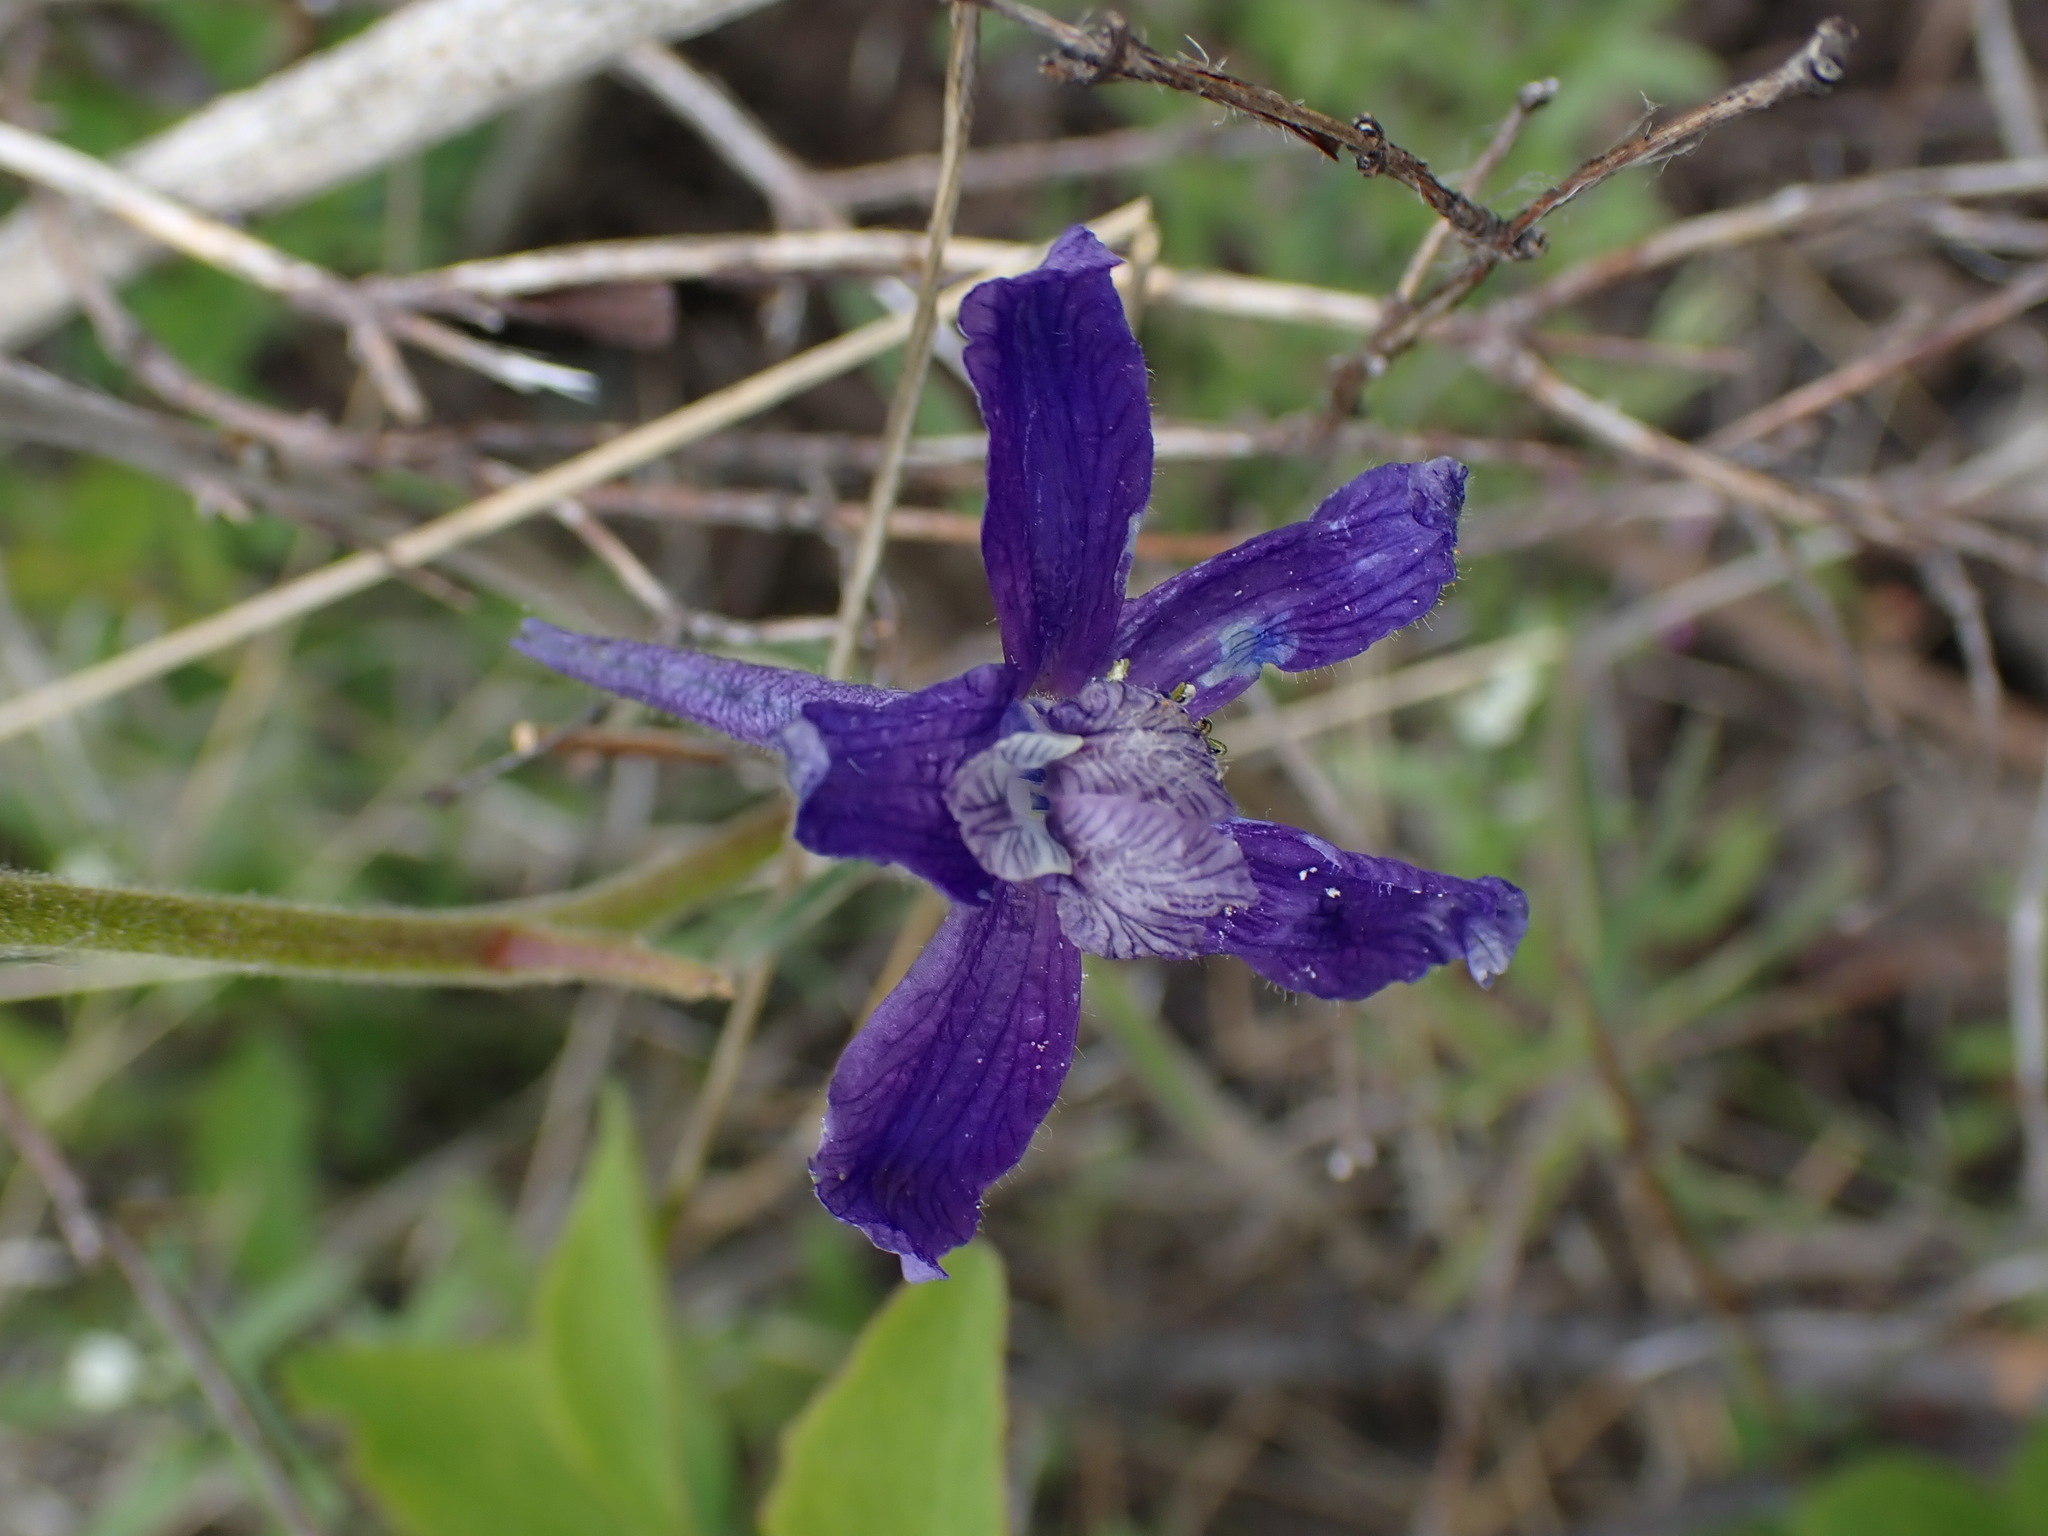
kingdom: Plantae
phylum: Tracheophyta
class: Magnoliopsida
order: Ranunculales
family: Ranunculaceae
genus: Delphinium
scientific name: Delphinium nuttallianum
